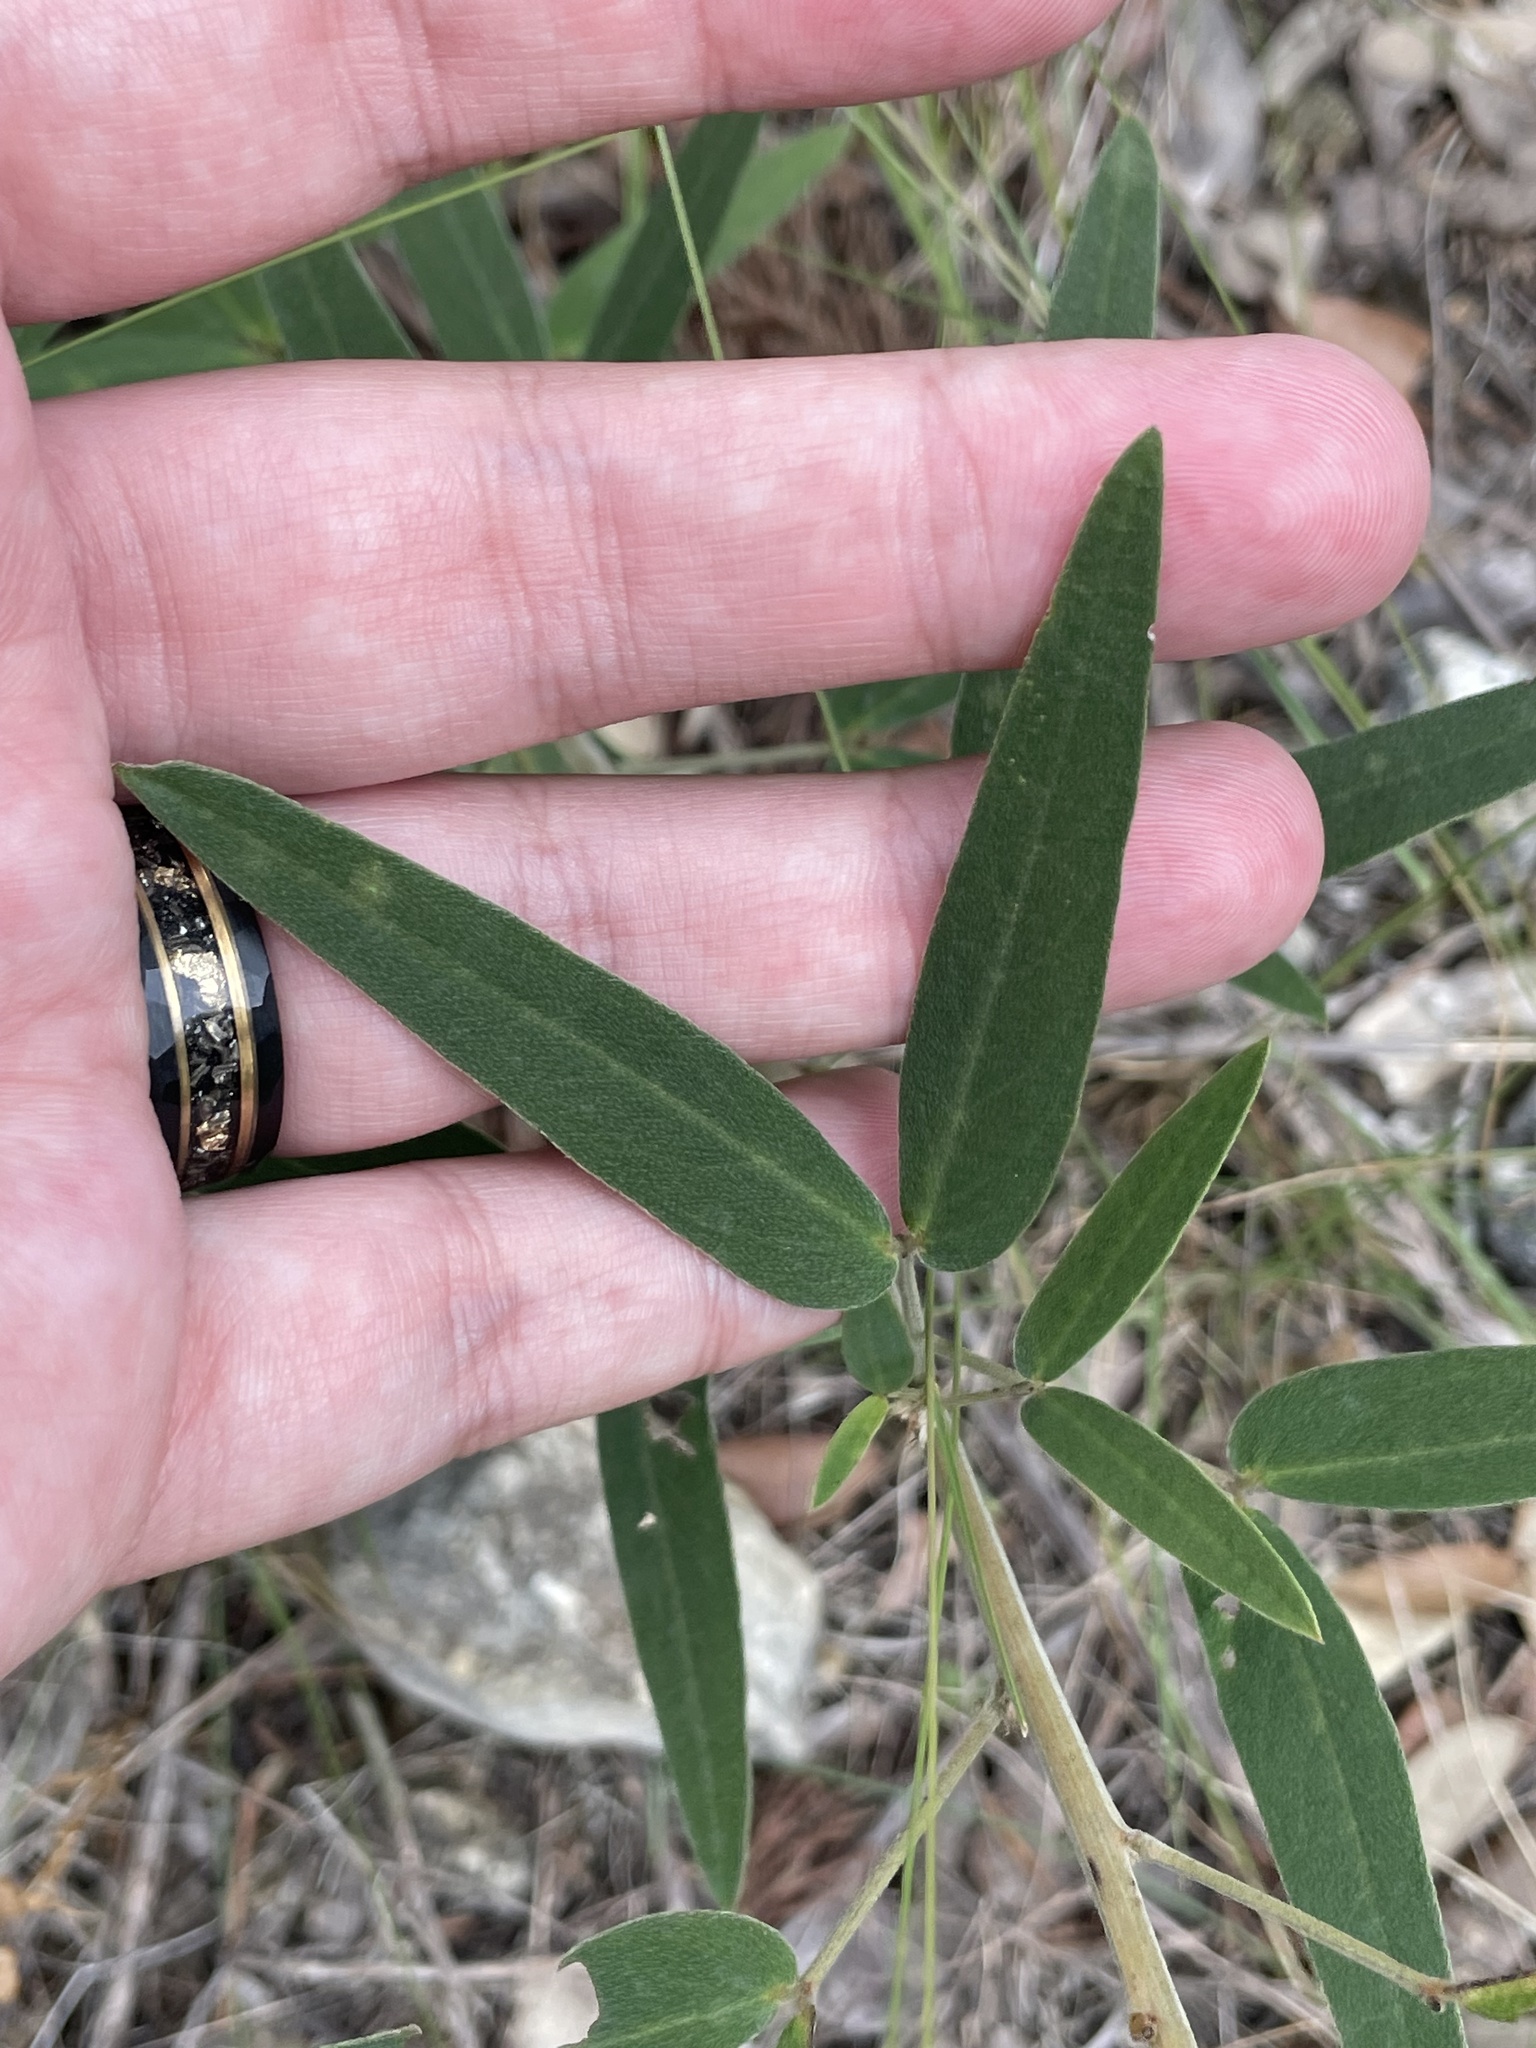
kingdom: Plantae
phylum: Tracheophyta
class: Magnoliopsida
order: Fabales
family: Fabaceae
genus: Senna
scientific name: Senna roemeriana
